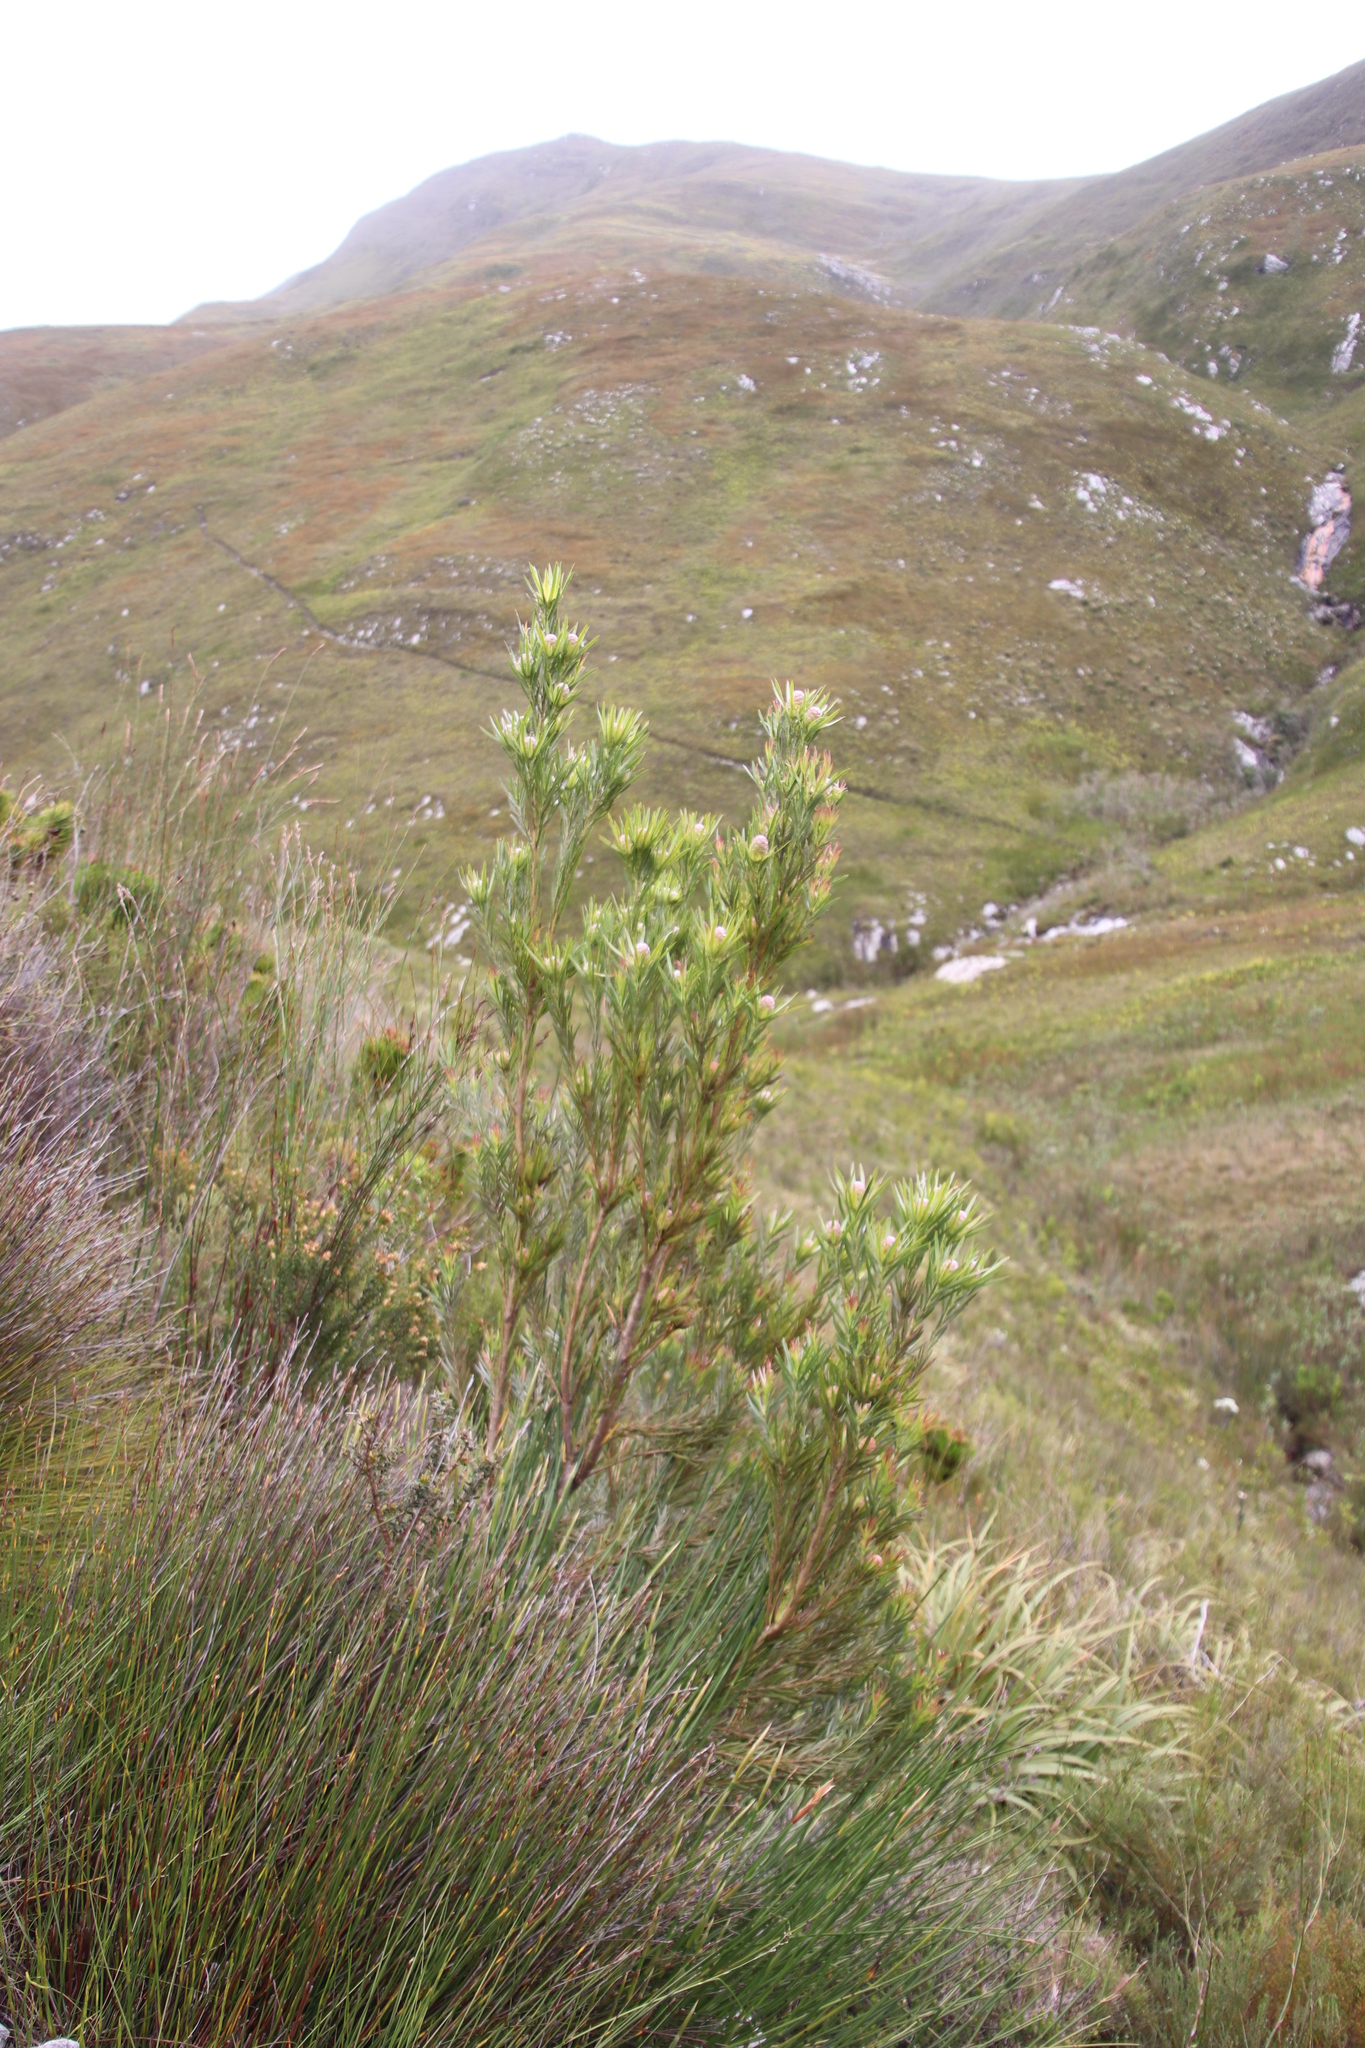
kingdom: Plantae
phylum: Tracheophyta
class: Magnoliopsida
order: Proteales
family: Proteaceae
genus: Leucadendron
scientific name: Leucadendron xanthoconus
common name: Sickle-leaf conebush
